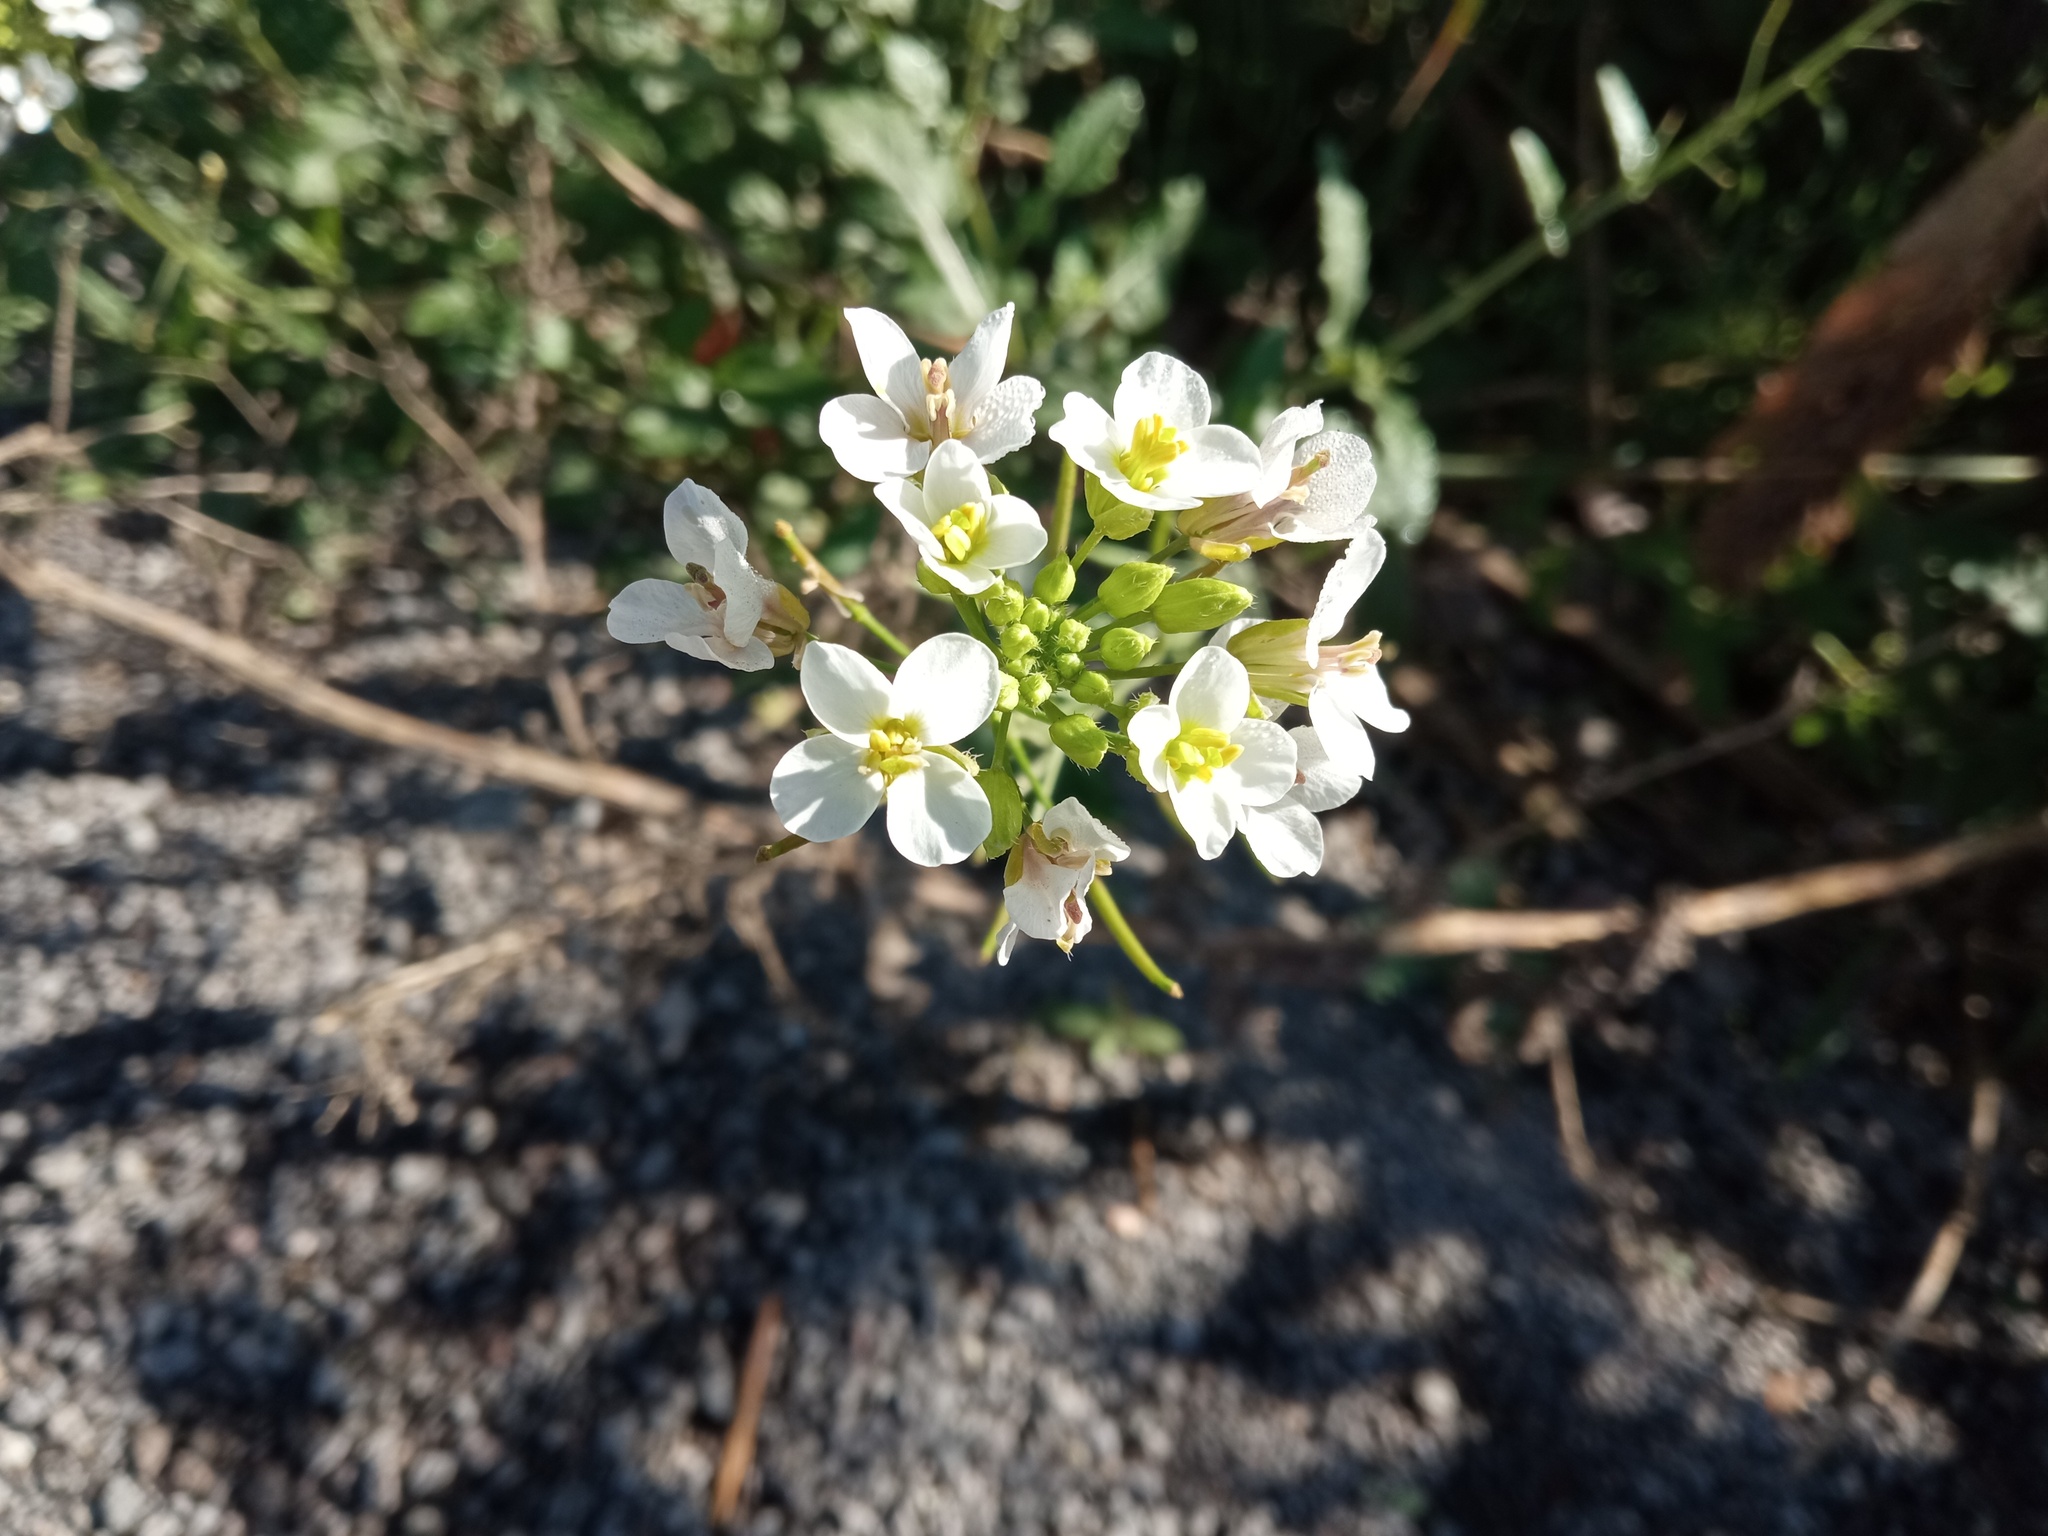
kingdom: Plantae
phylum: Tracheophyta
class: Magnoliopsida
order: Brassicales
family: Brassicaceae
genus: Diplotaxis
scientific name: Diplotaxis erucoides
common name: White rocket
